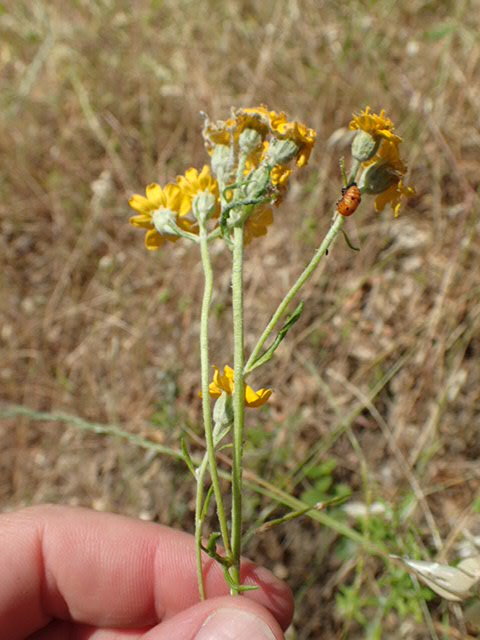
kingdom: Plantae
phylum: Tracheophyta
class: Magnoliopsida
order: Asterales
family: Asteraceae
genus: Eriophyllum
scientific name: Eriophyllum latilobum
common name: San mateo woolly-sunflower
